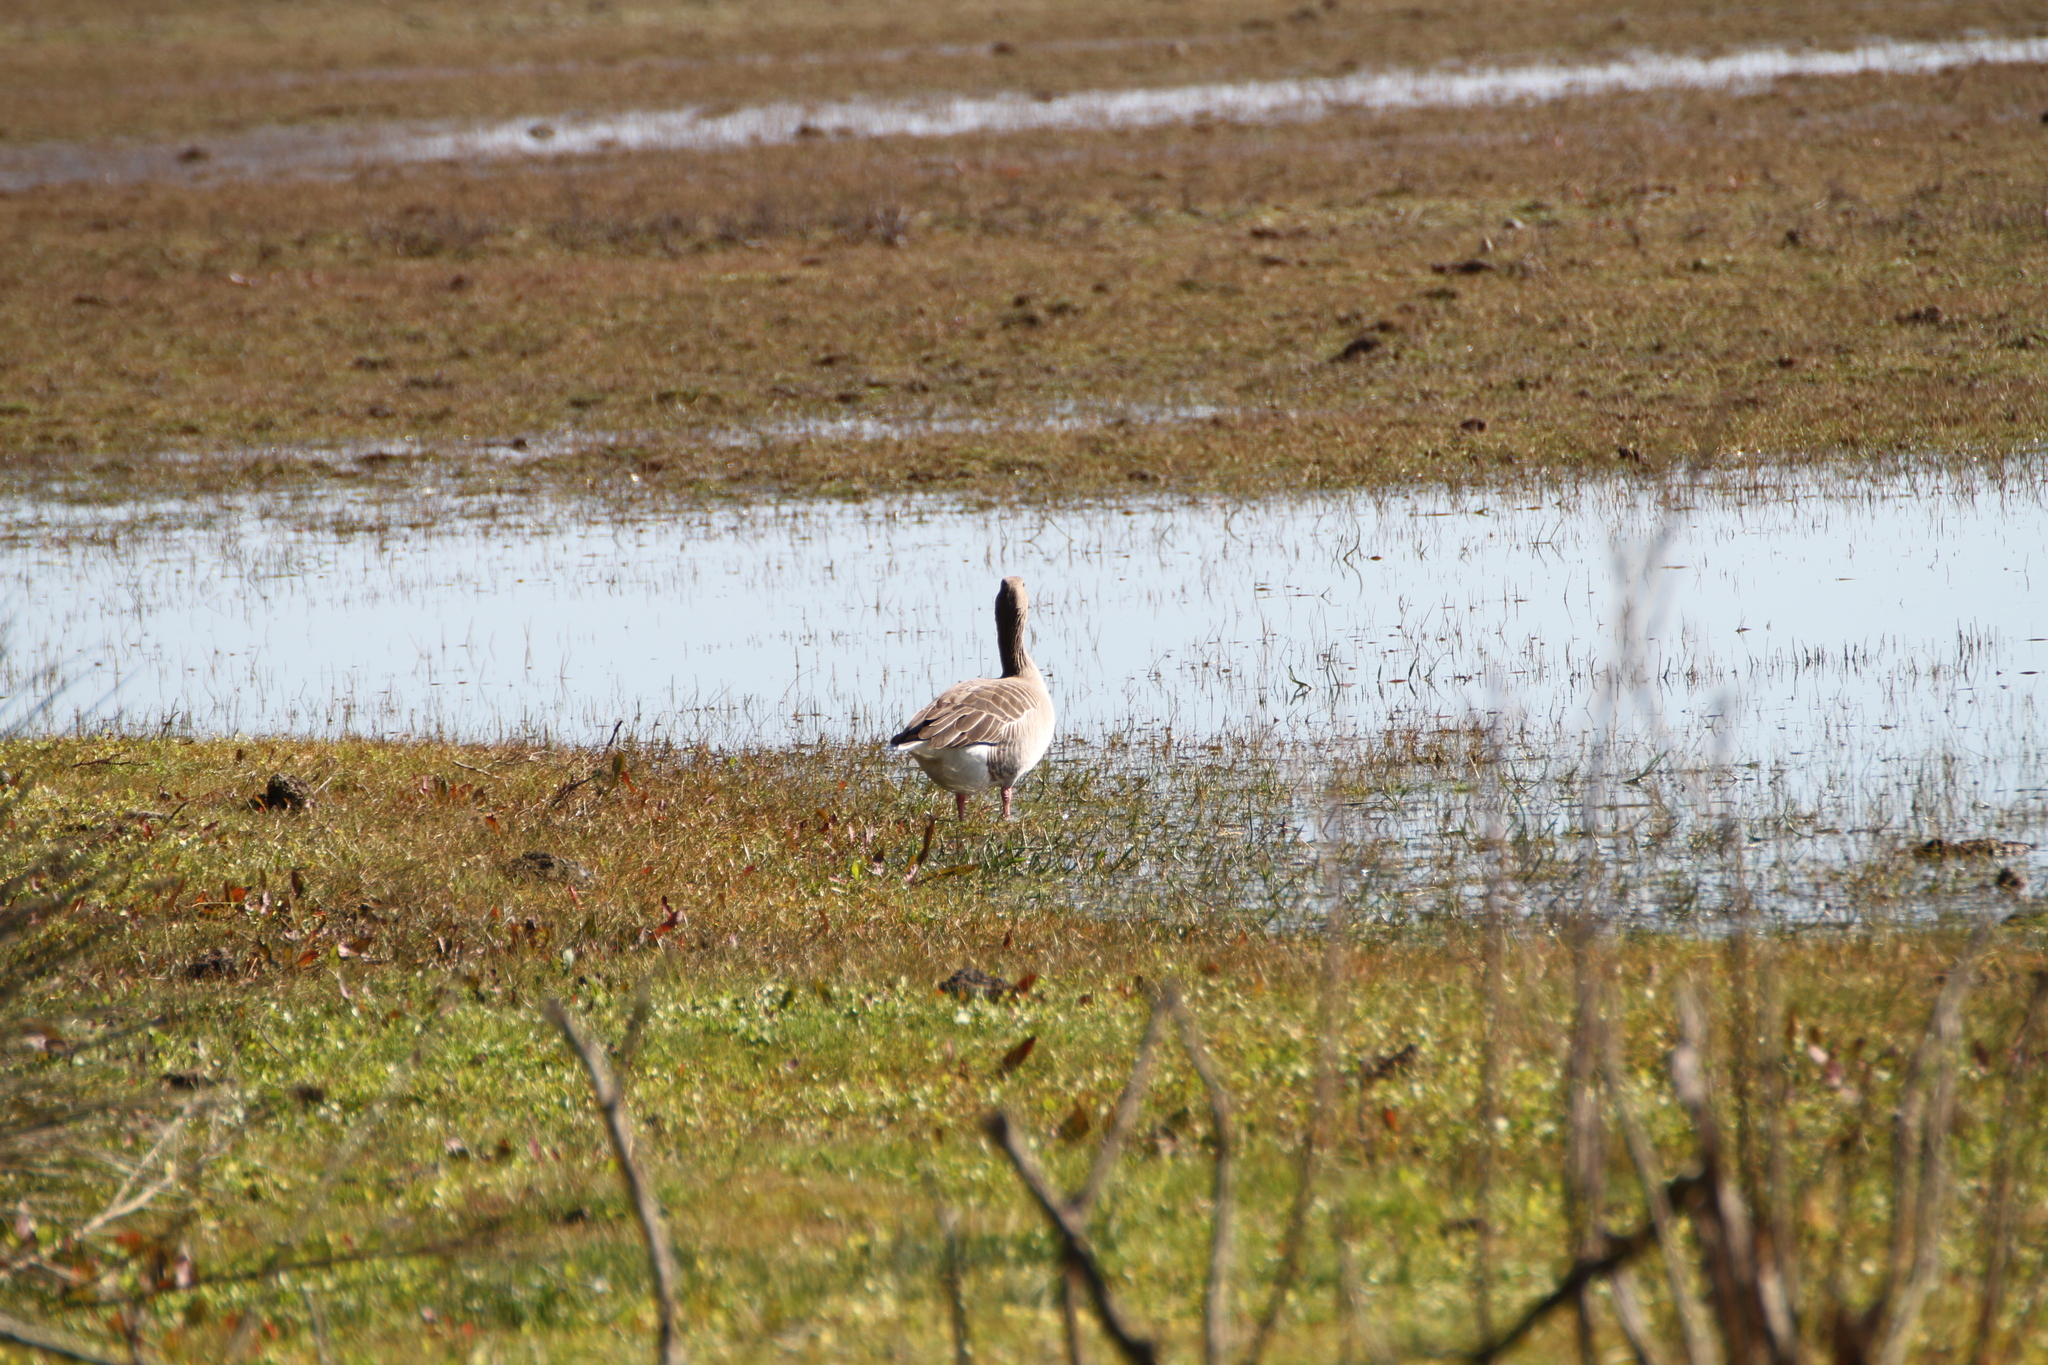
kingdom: Animalia
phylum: Chordata
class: Aves
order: Anseriformes
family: Anatidae
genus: Anser
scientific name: Anser anser
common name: Greylag goose
